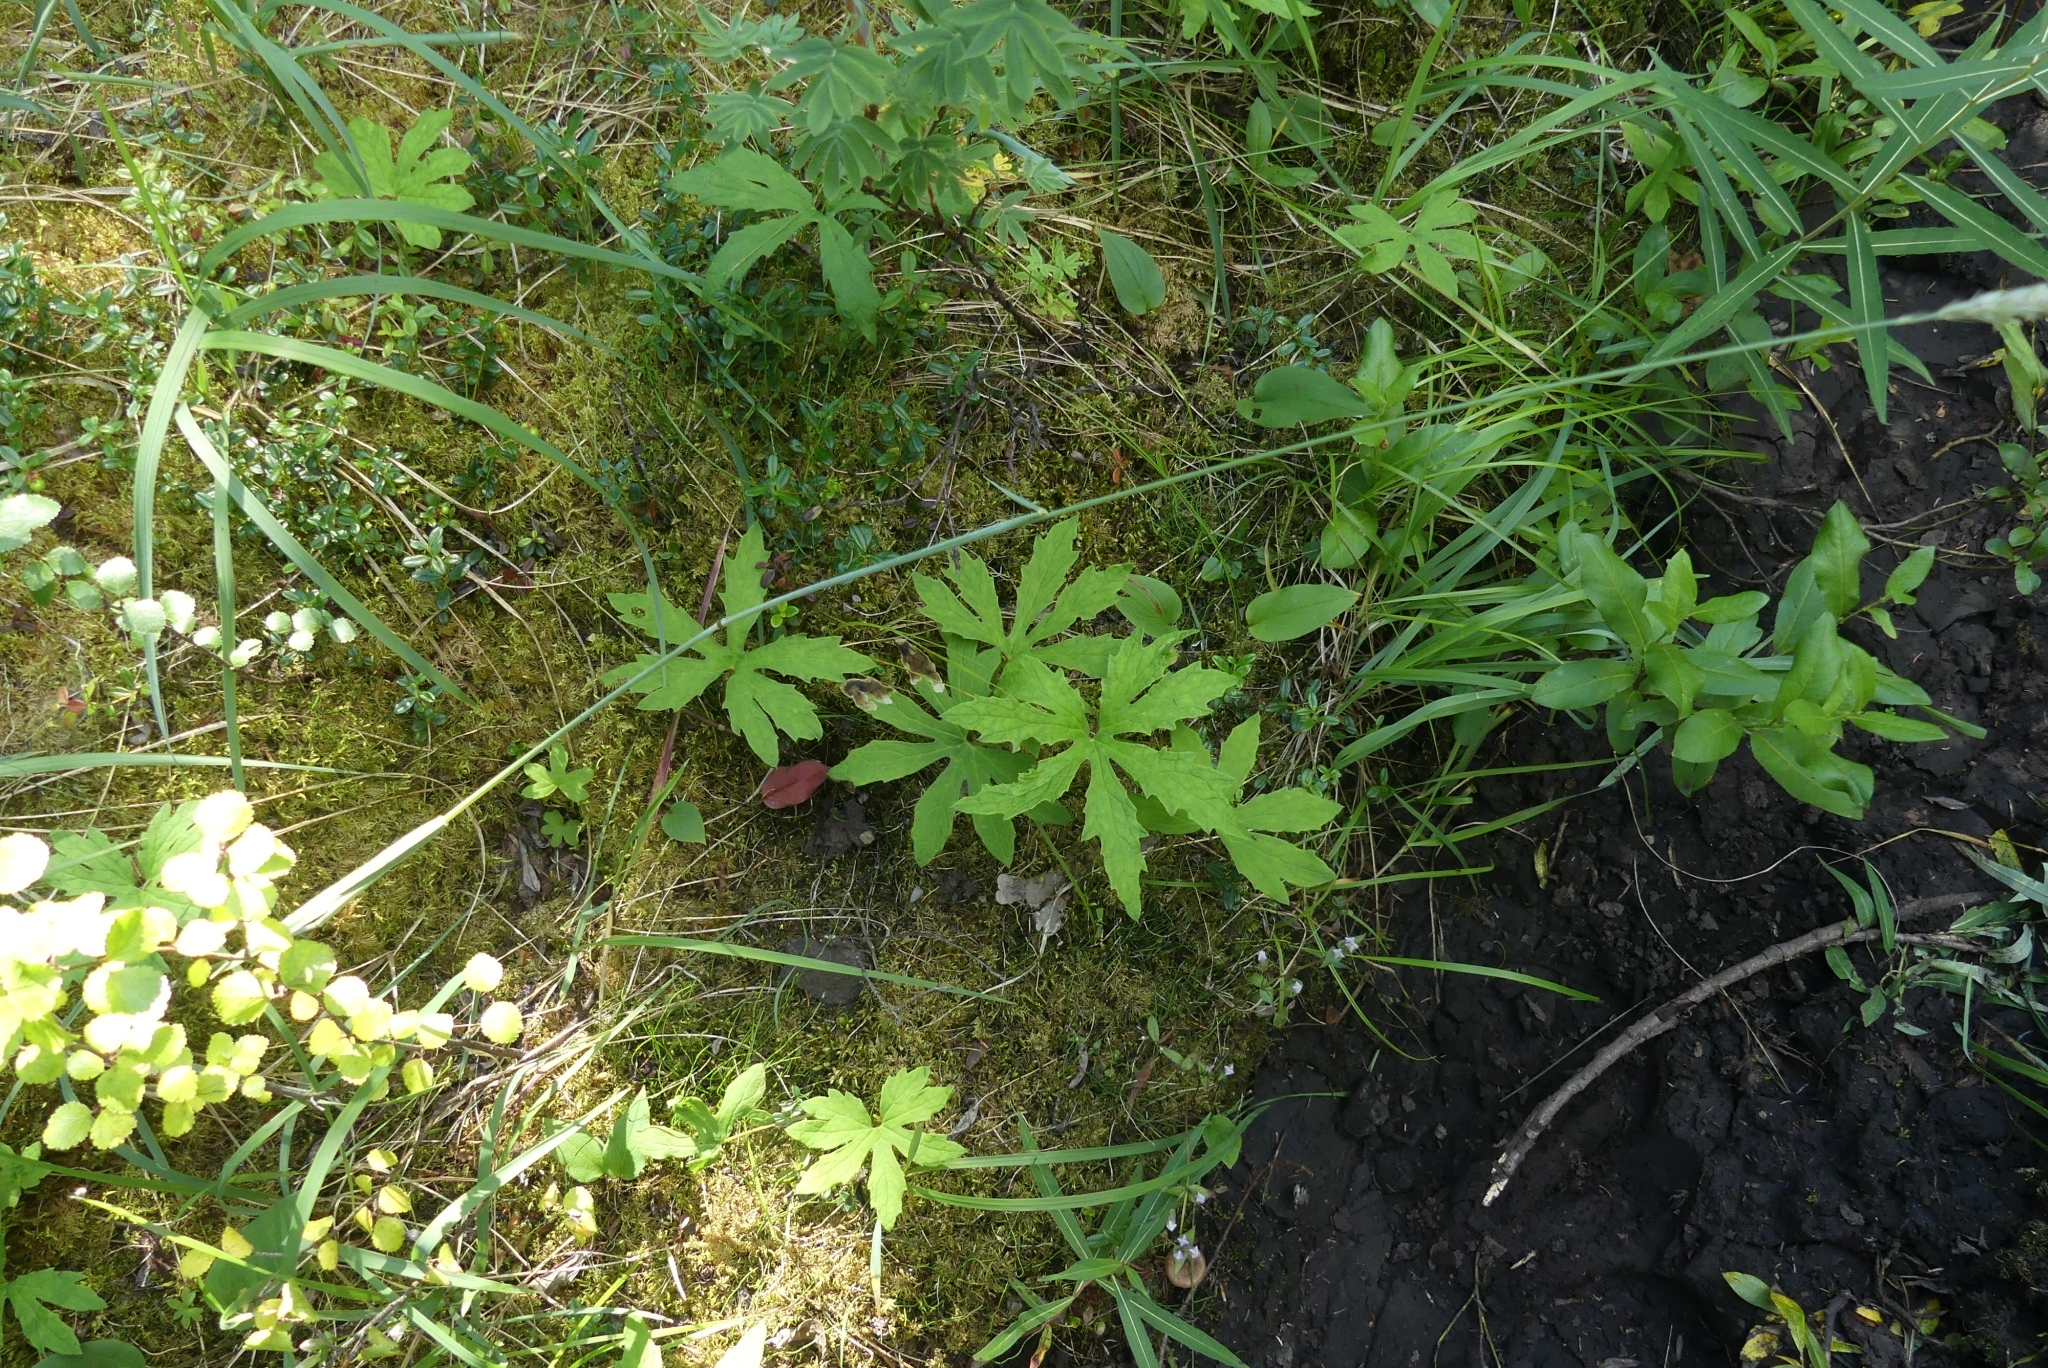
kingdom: Plantae
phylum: Tracheophyta
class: Magnoliopsida
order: Asterales
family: Asteraceae
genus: Petasites
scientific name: Petasites frigidus
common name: Arctic butterbur
